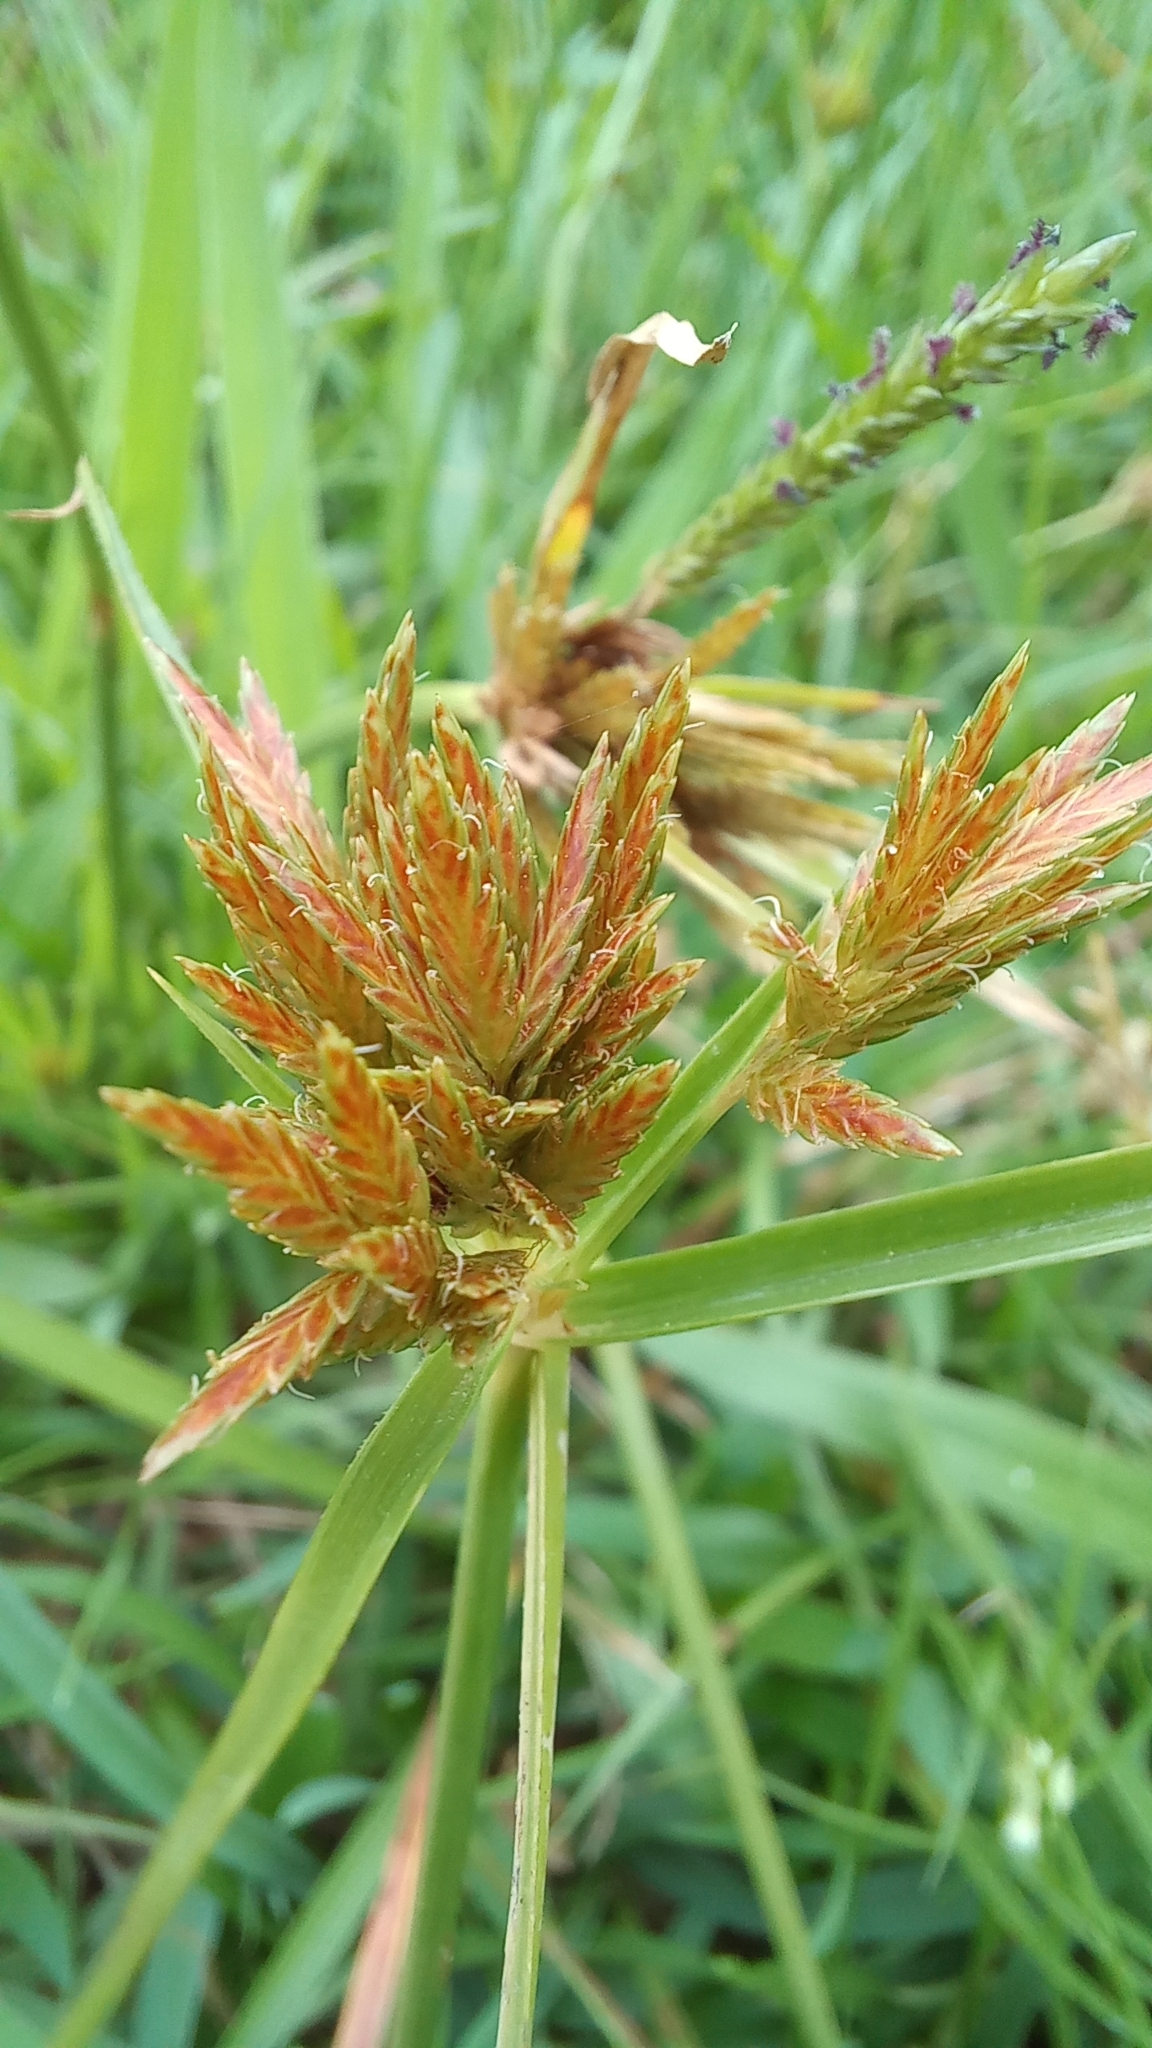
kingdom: Plantae
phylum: Tracheophyta
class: Liliopsida
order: Poales
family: Cyperaceae
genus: Cyperus
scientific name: Cyperus polystachyos
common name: Bunchy flat sedge
